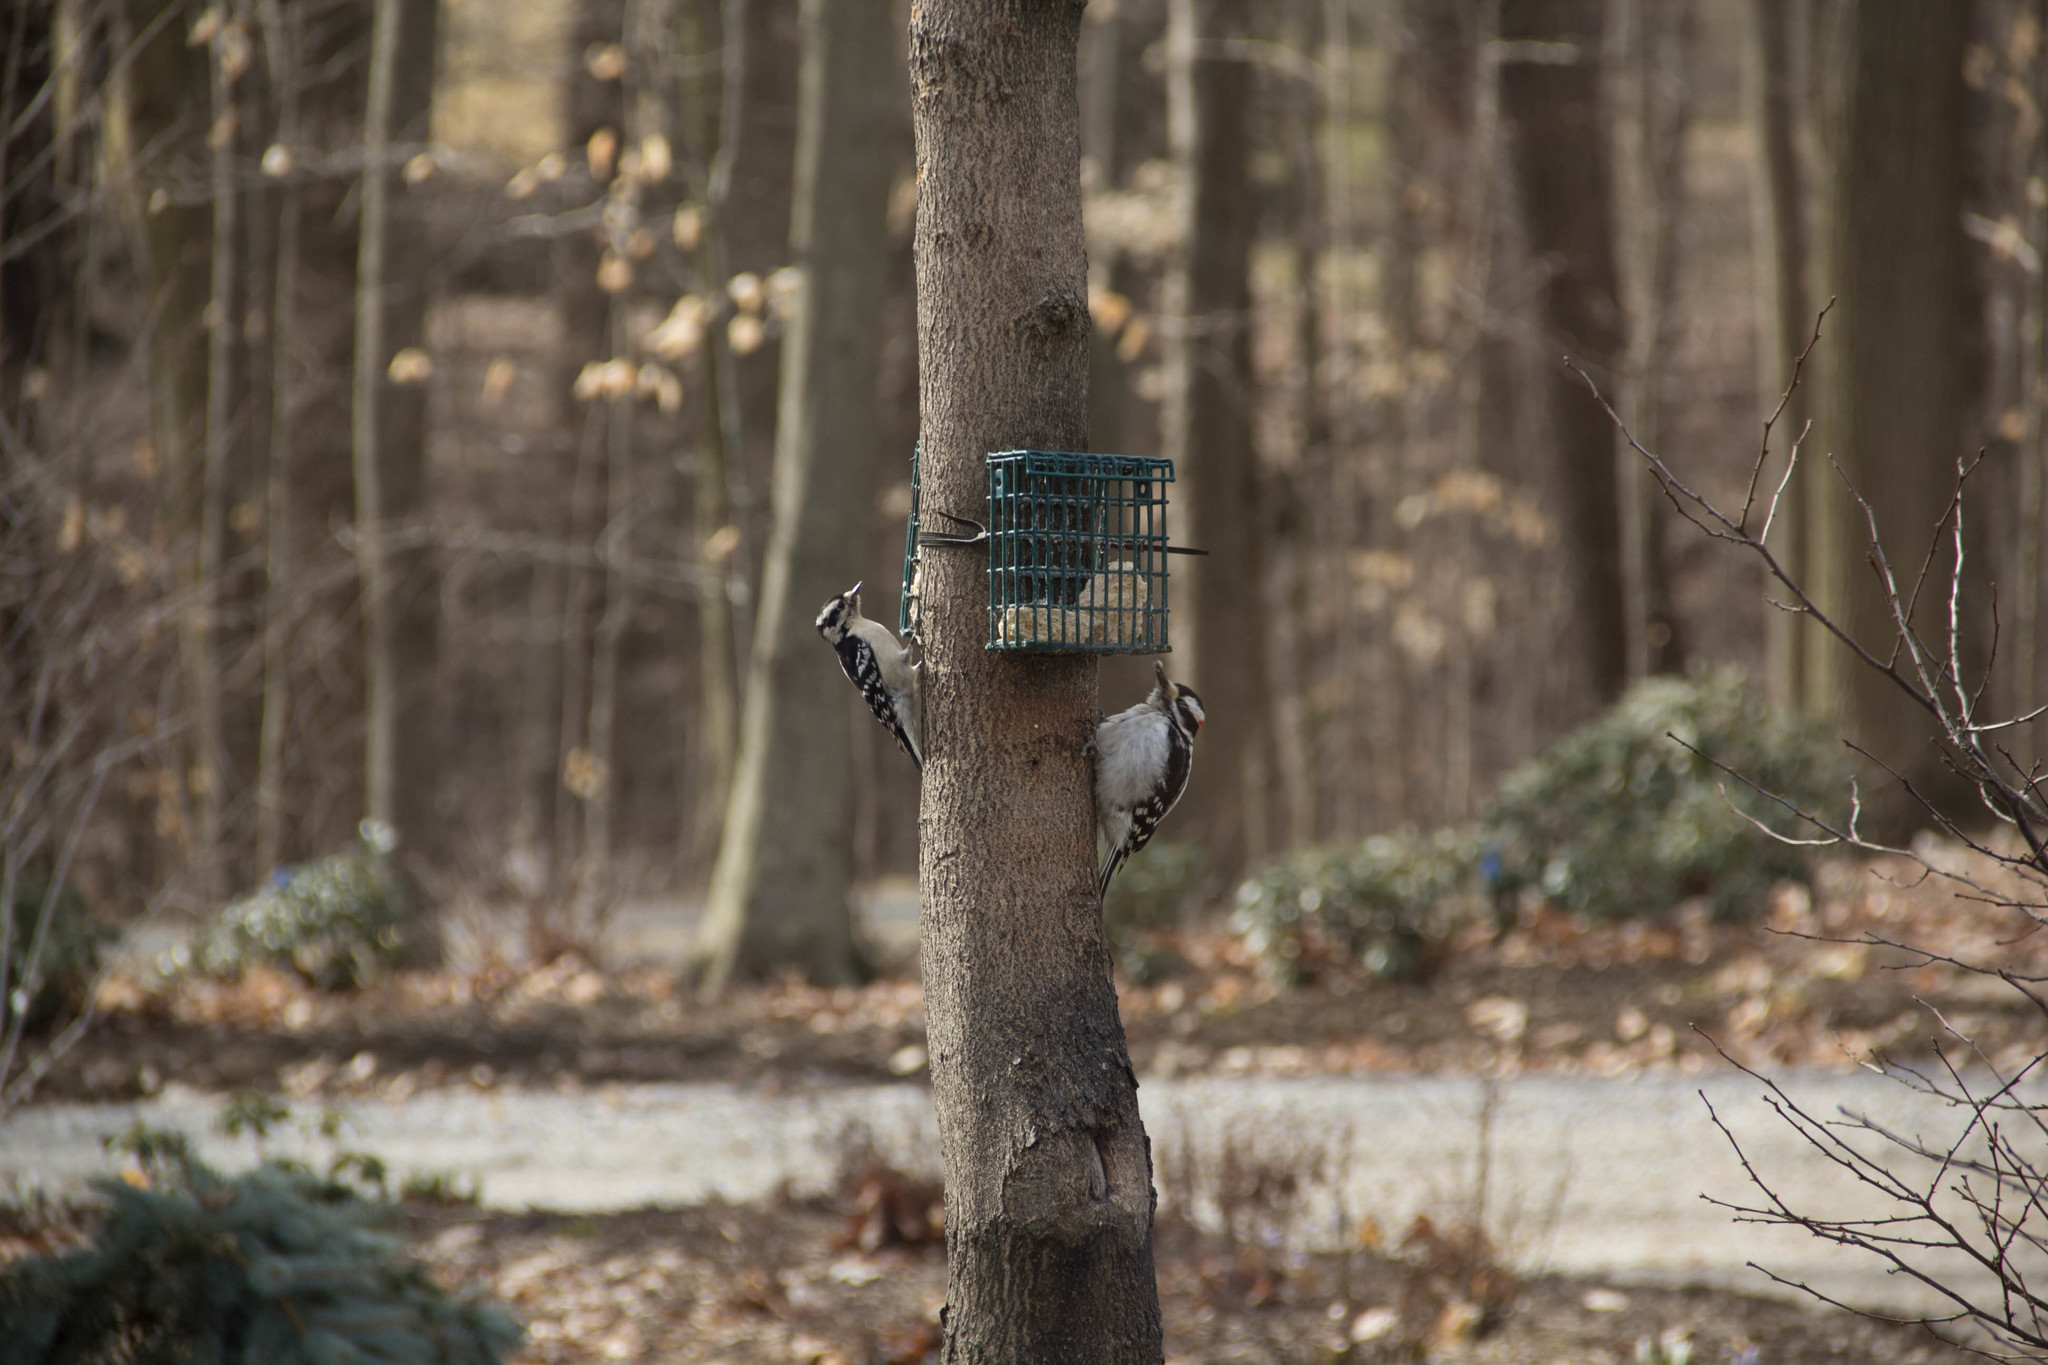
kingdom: Animalia
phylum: Chordata
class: Aves
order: Piciformes
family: Picidae
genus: Leuconotopicus
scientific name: Leuconotopicus villosus
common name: Hairy woodpecker
